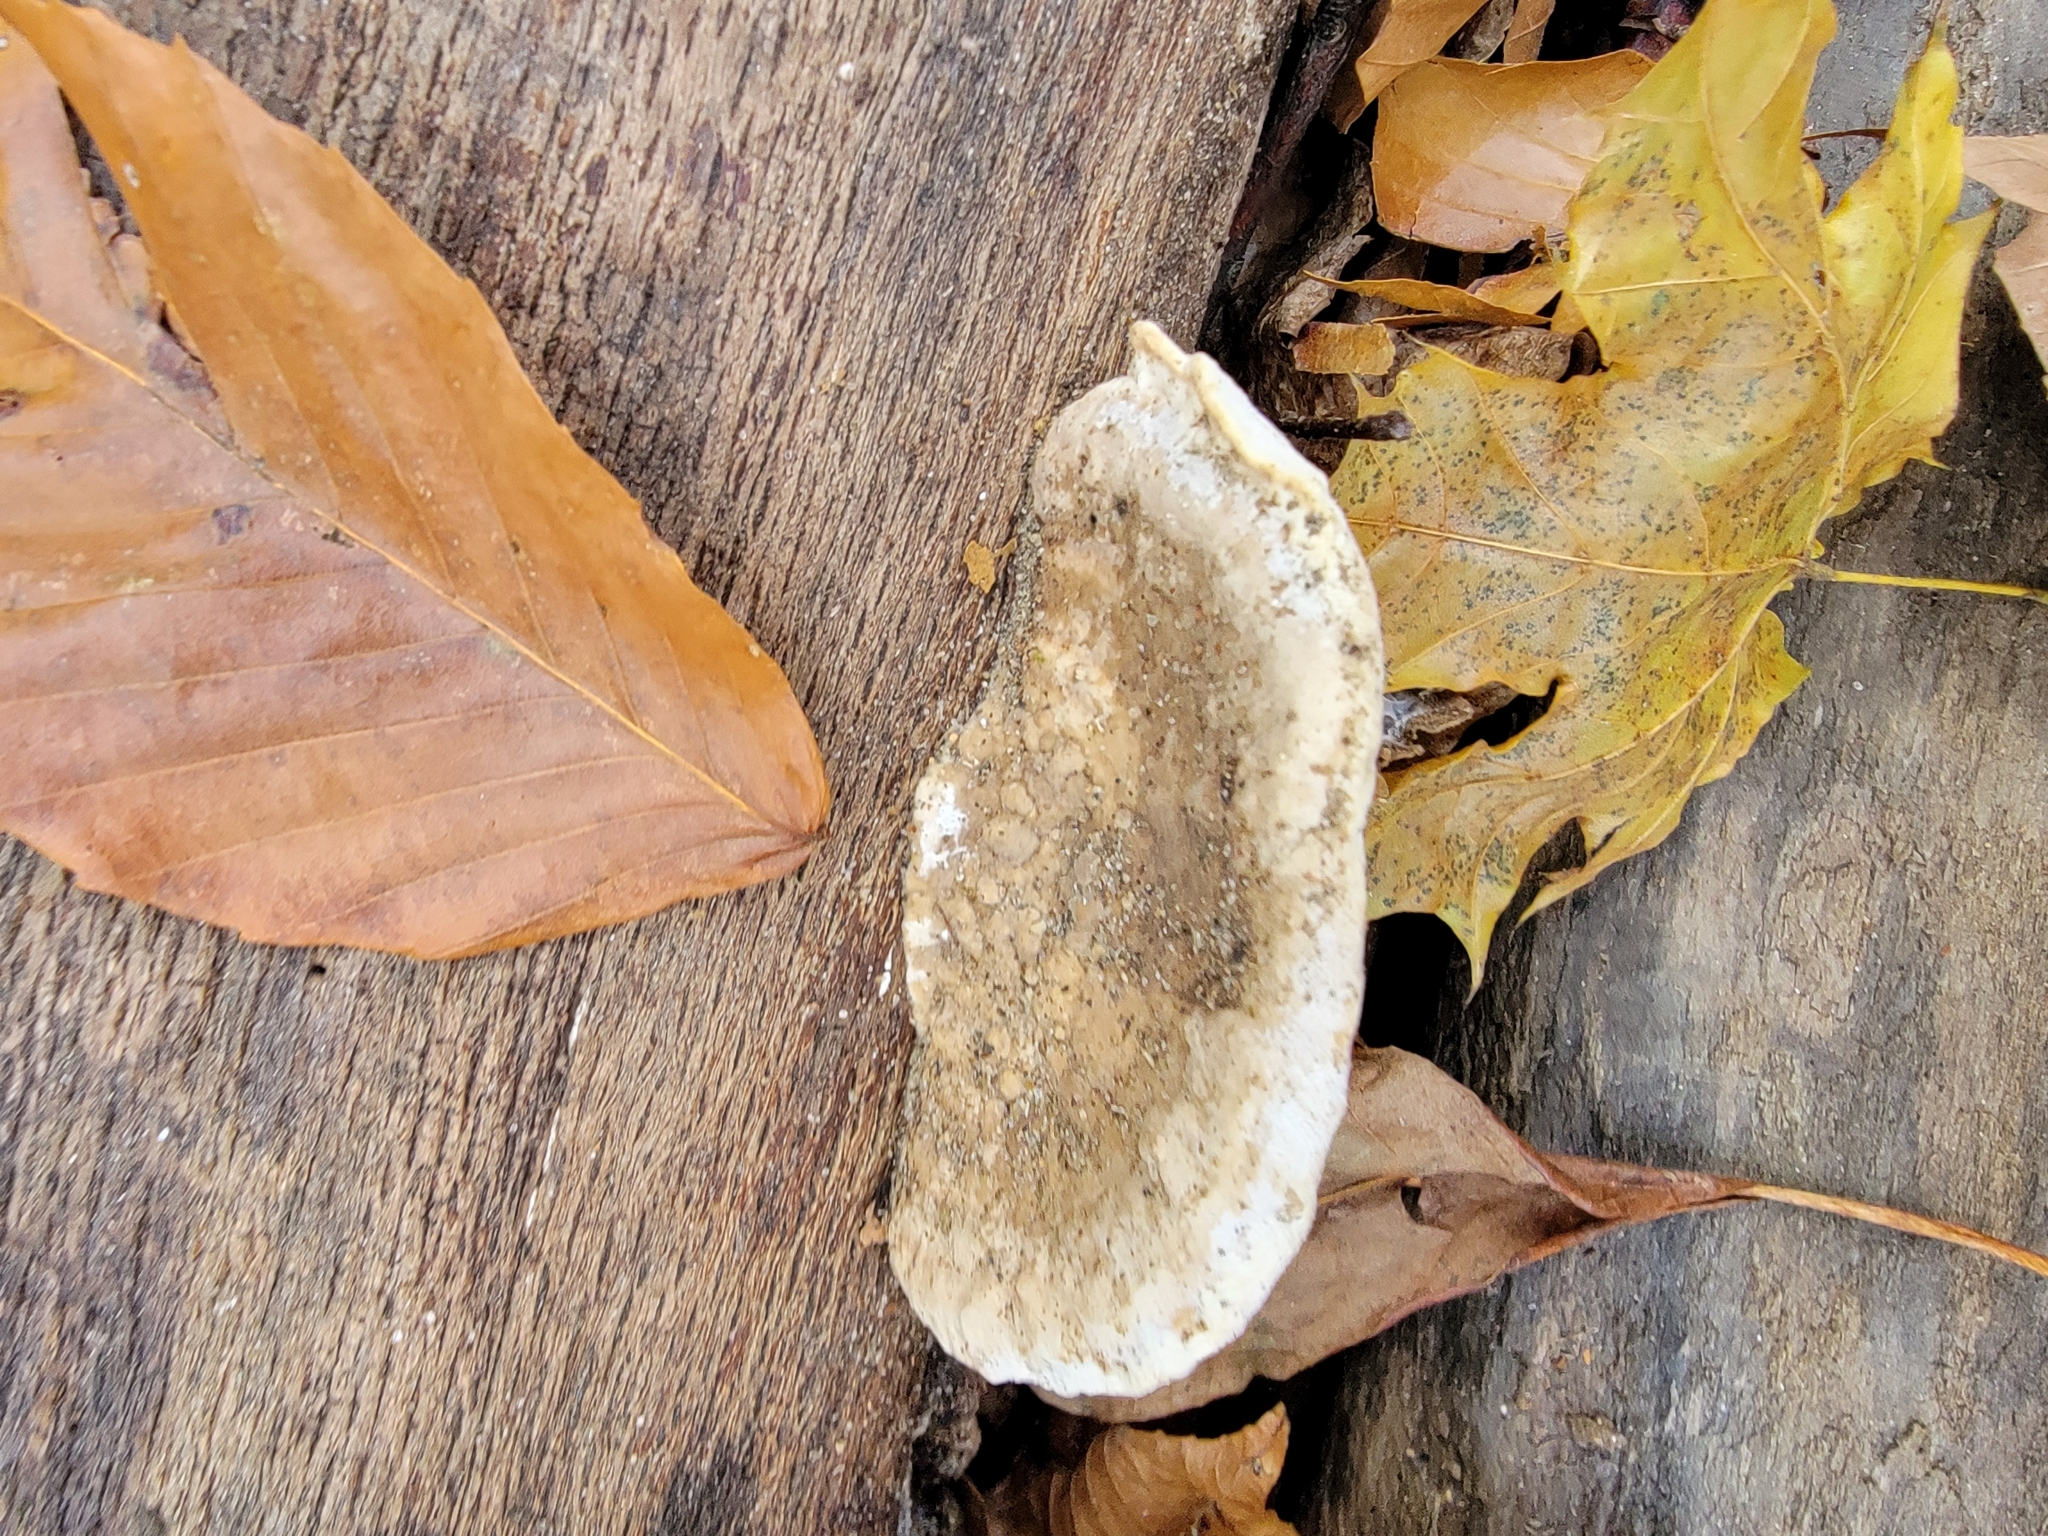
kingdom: Fungi
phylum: Basidiomycota
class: Agaricomycetes
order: Polyporales
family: Polyporaceae
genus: Trametes
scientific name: Trametes gibbosa
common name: Lumpy bracket
